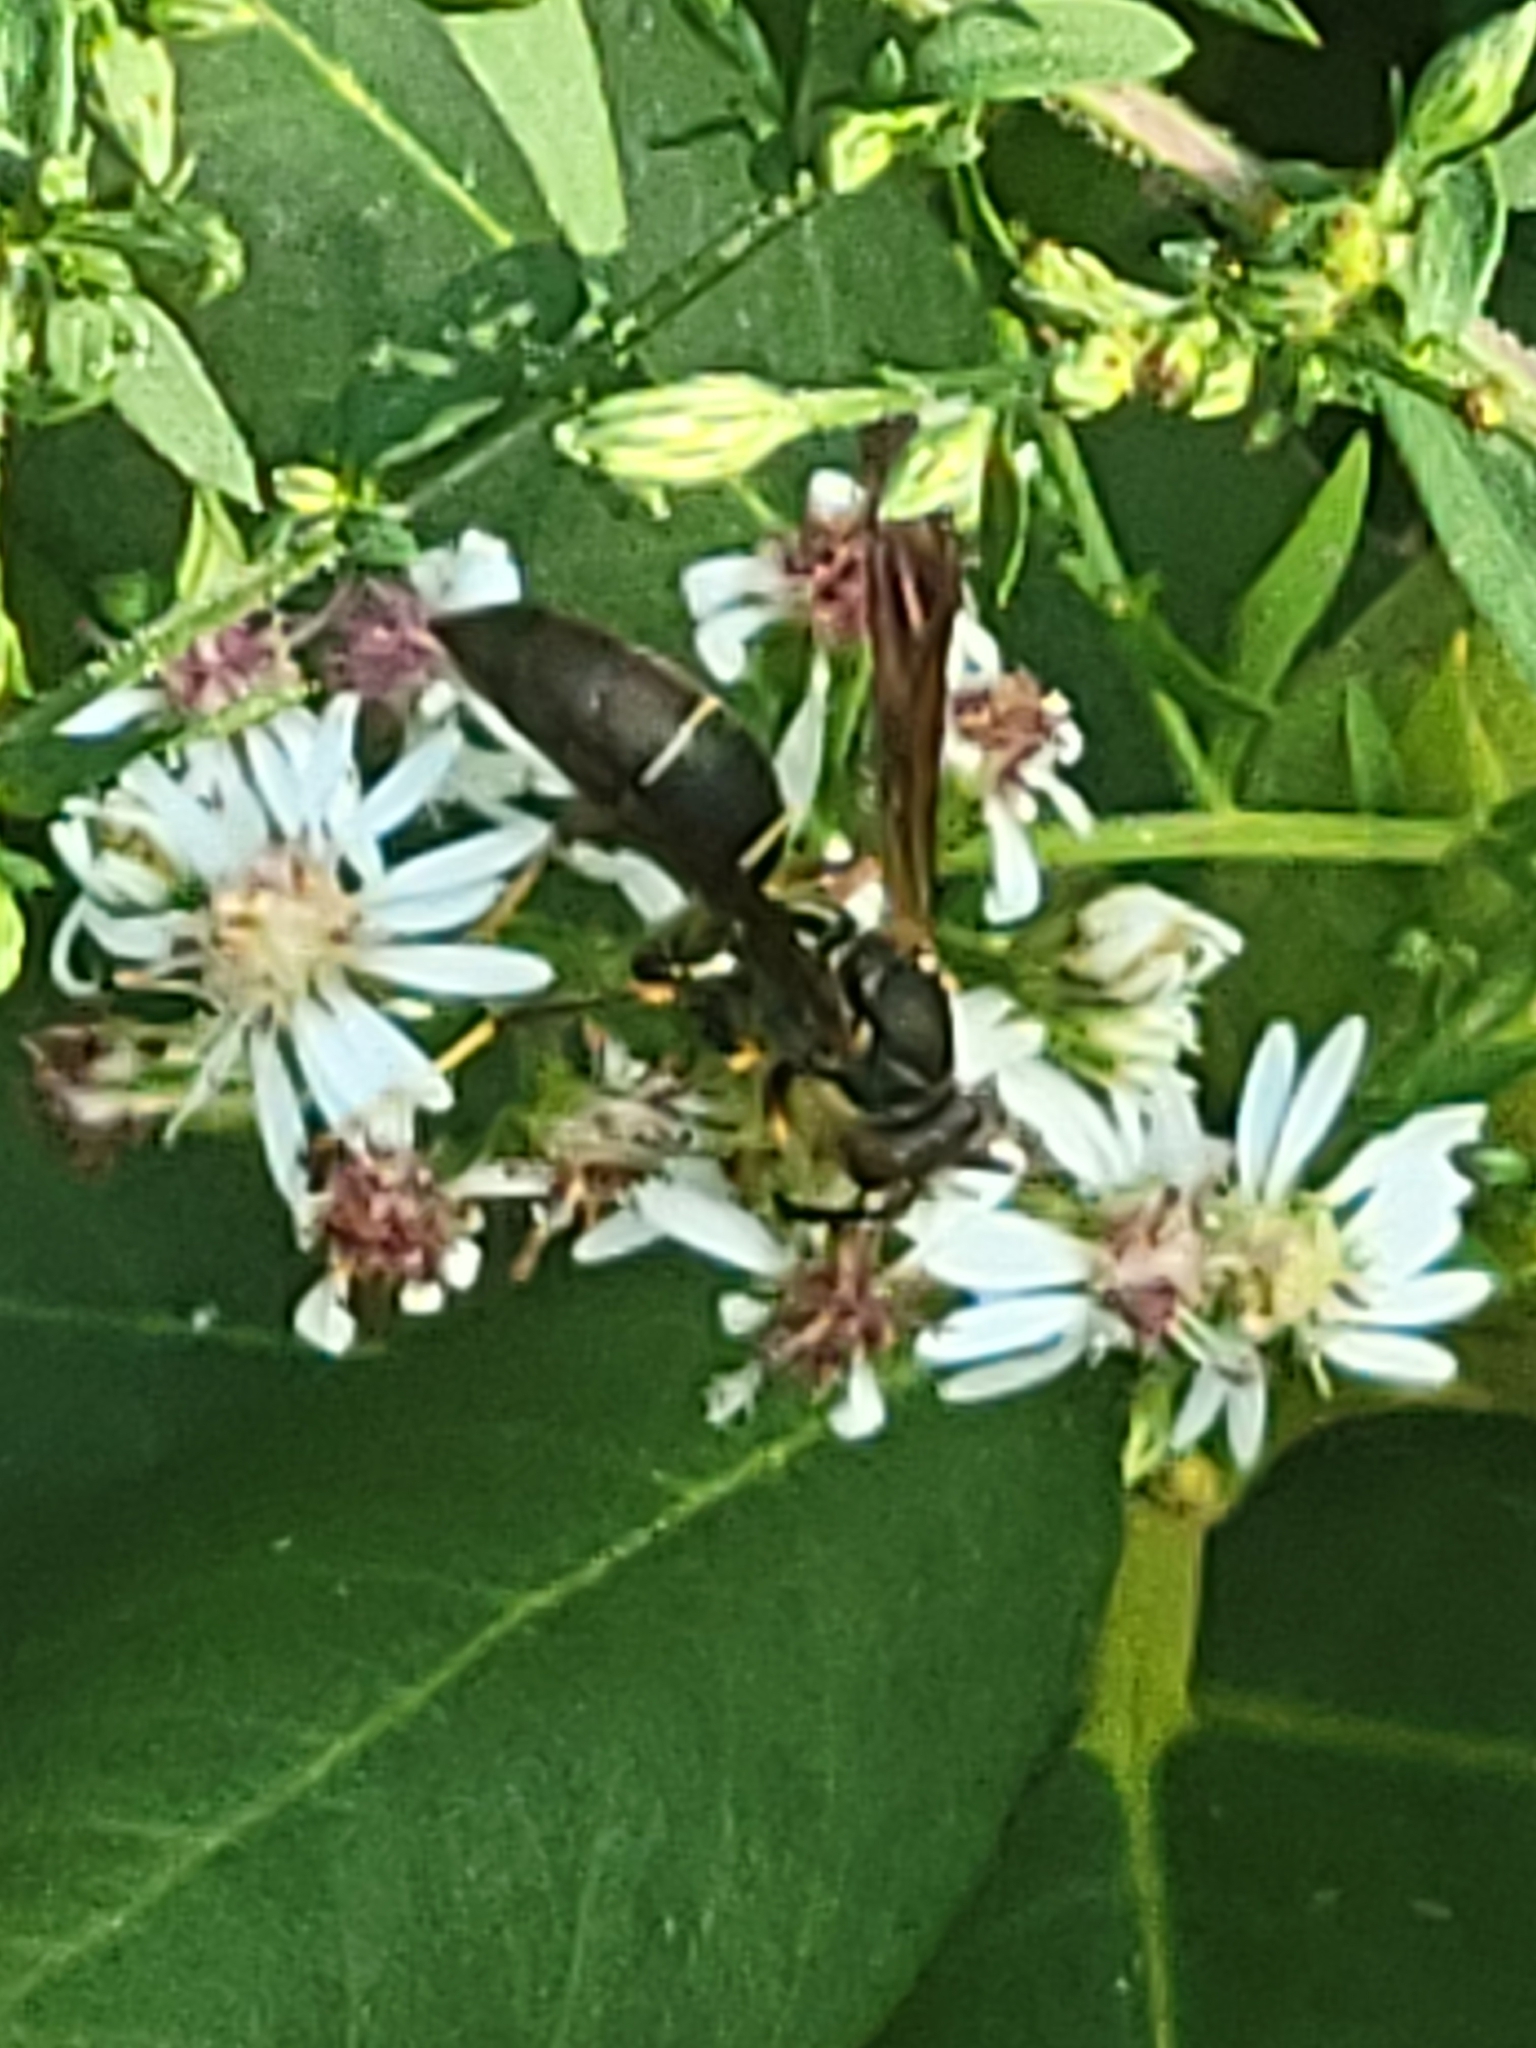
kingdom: Animalia
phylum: Arthropoda
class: Insecta
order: Hymenoptera
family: Eumenidae
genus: Polistes
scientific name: Polistes fuscatus
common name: Dark paper wasp
